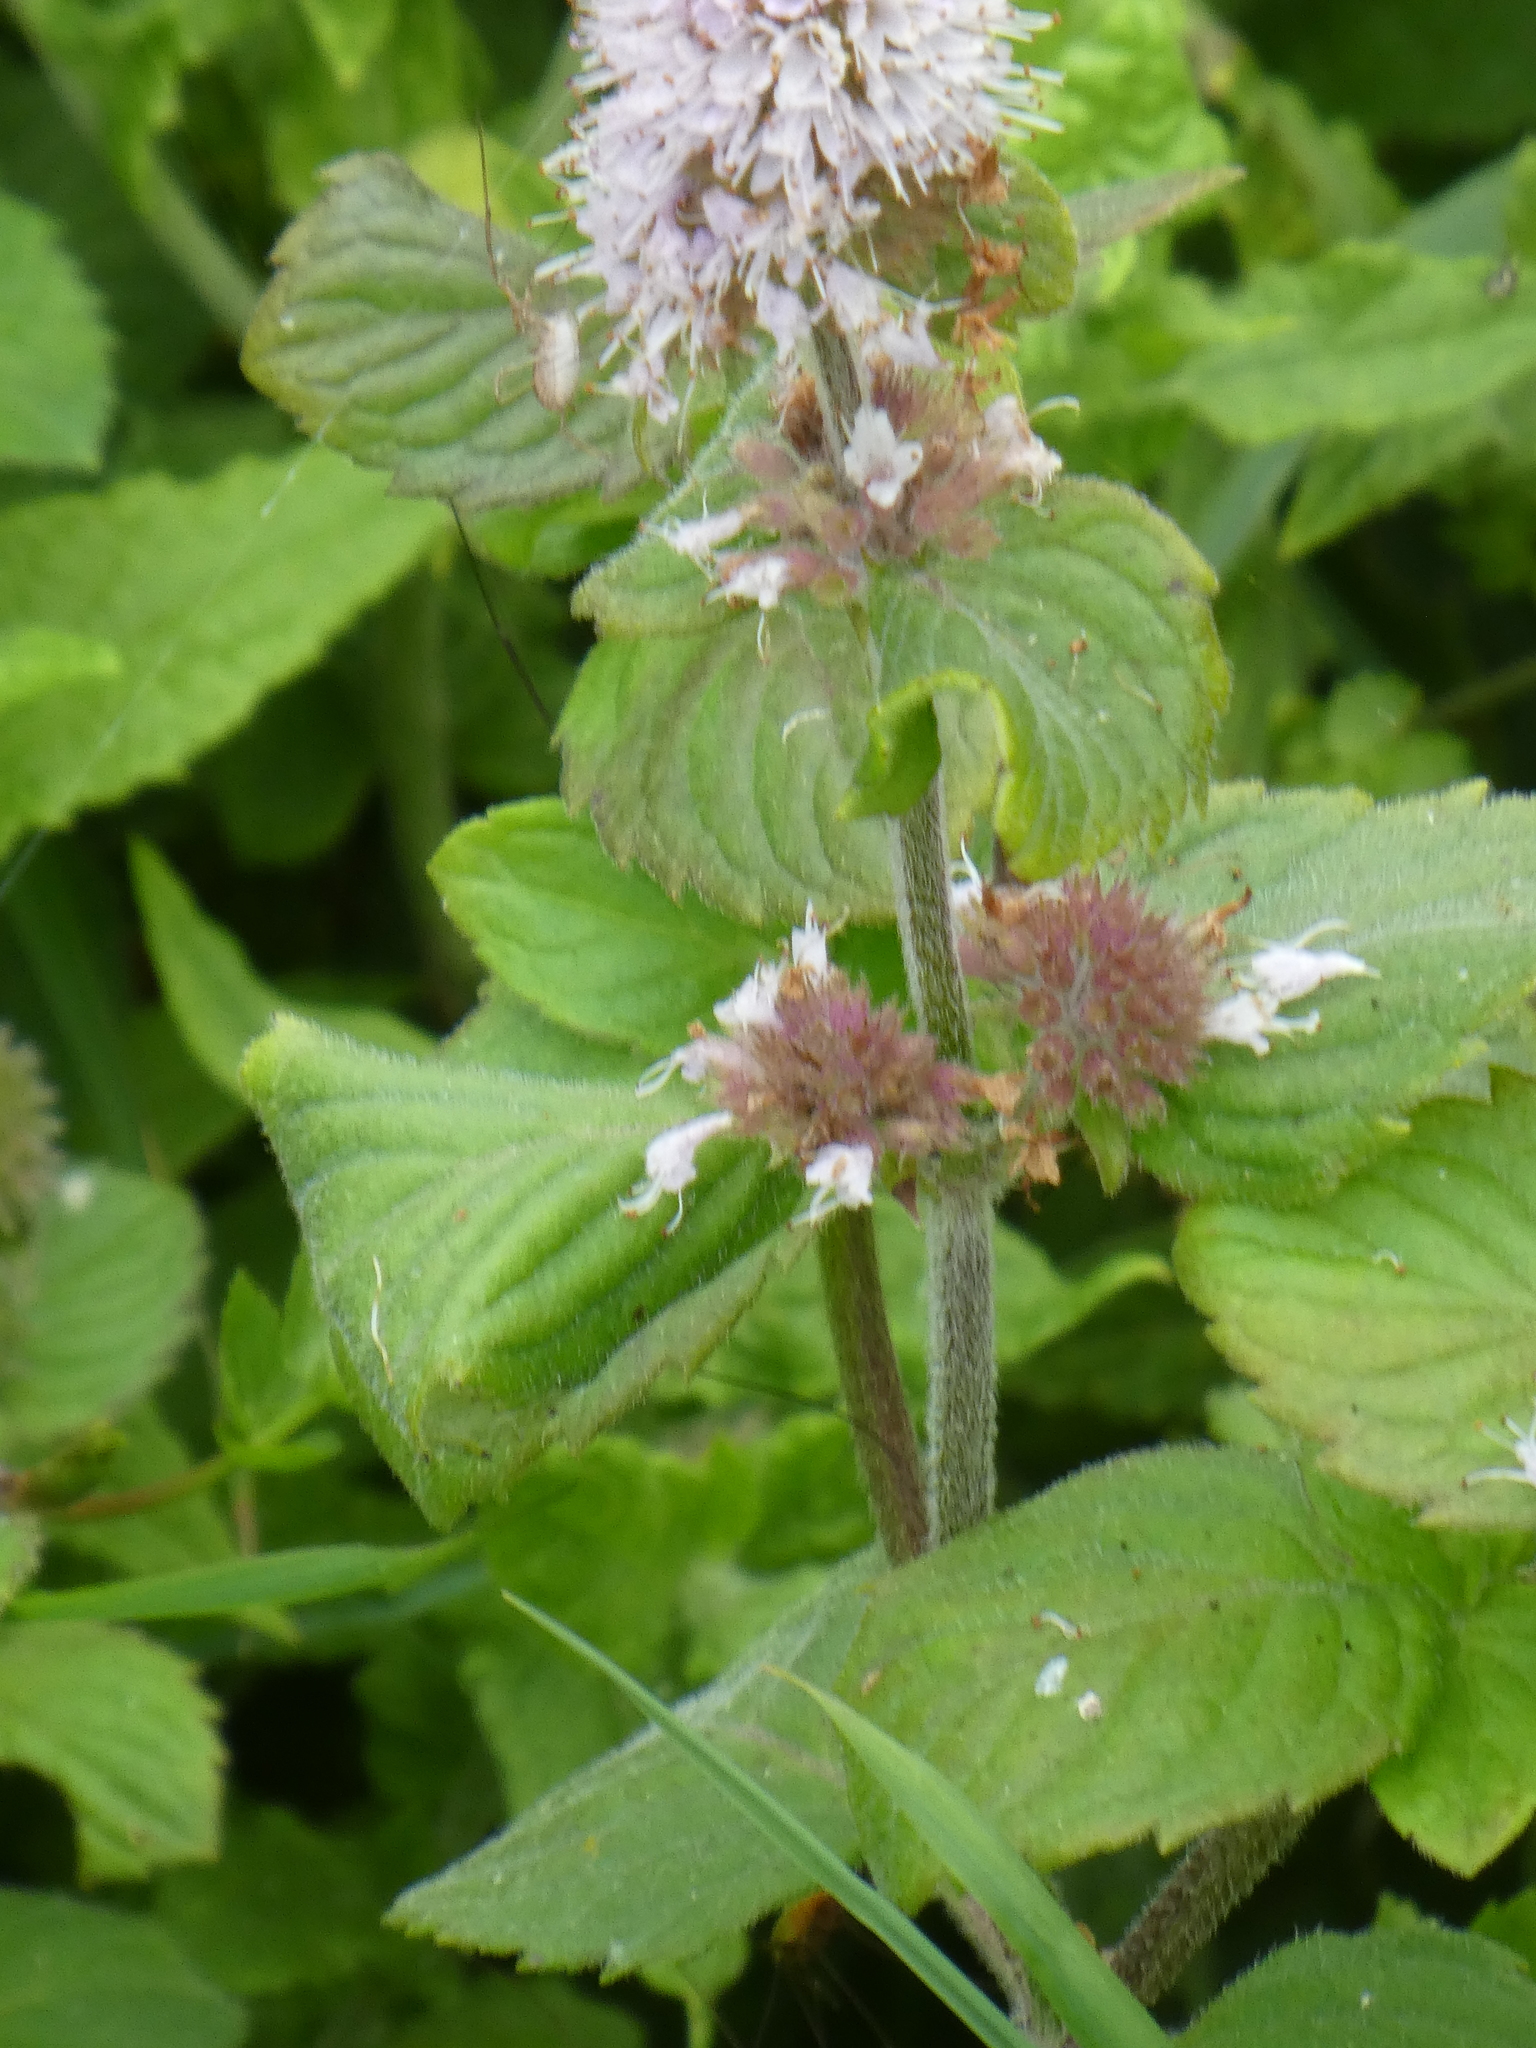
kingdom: Plantae
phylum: Tracheophyta
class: Magnoliopsida
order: Lamiales
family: Lamiaceae
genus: Mentha
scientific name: Mentha aquatica
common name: Water mint
